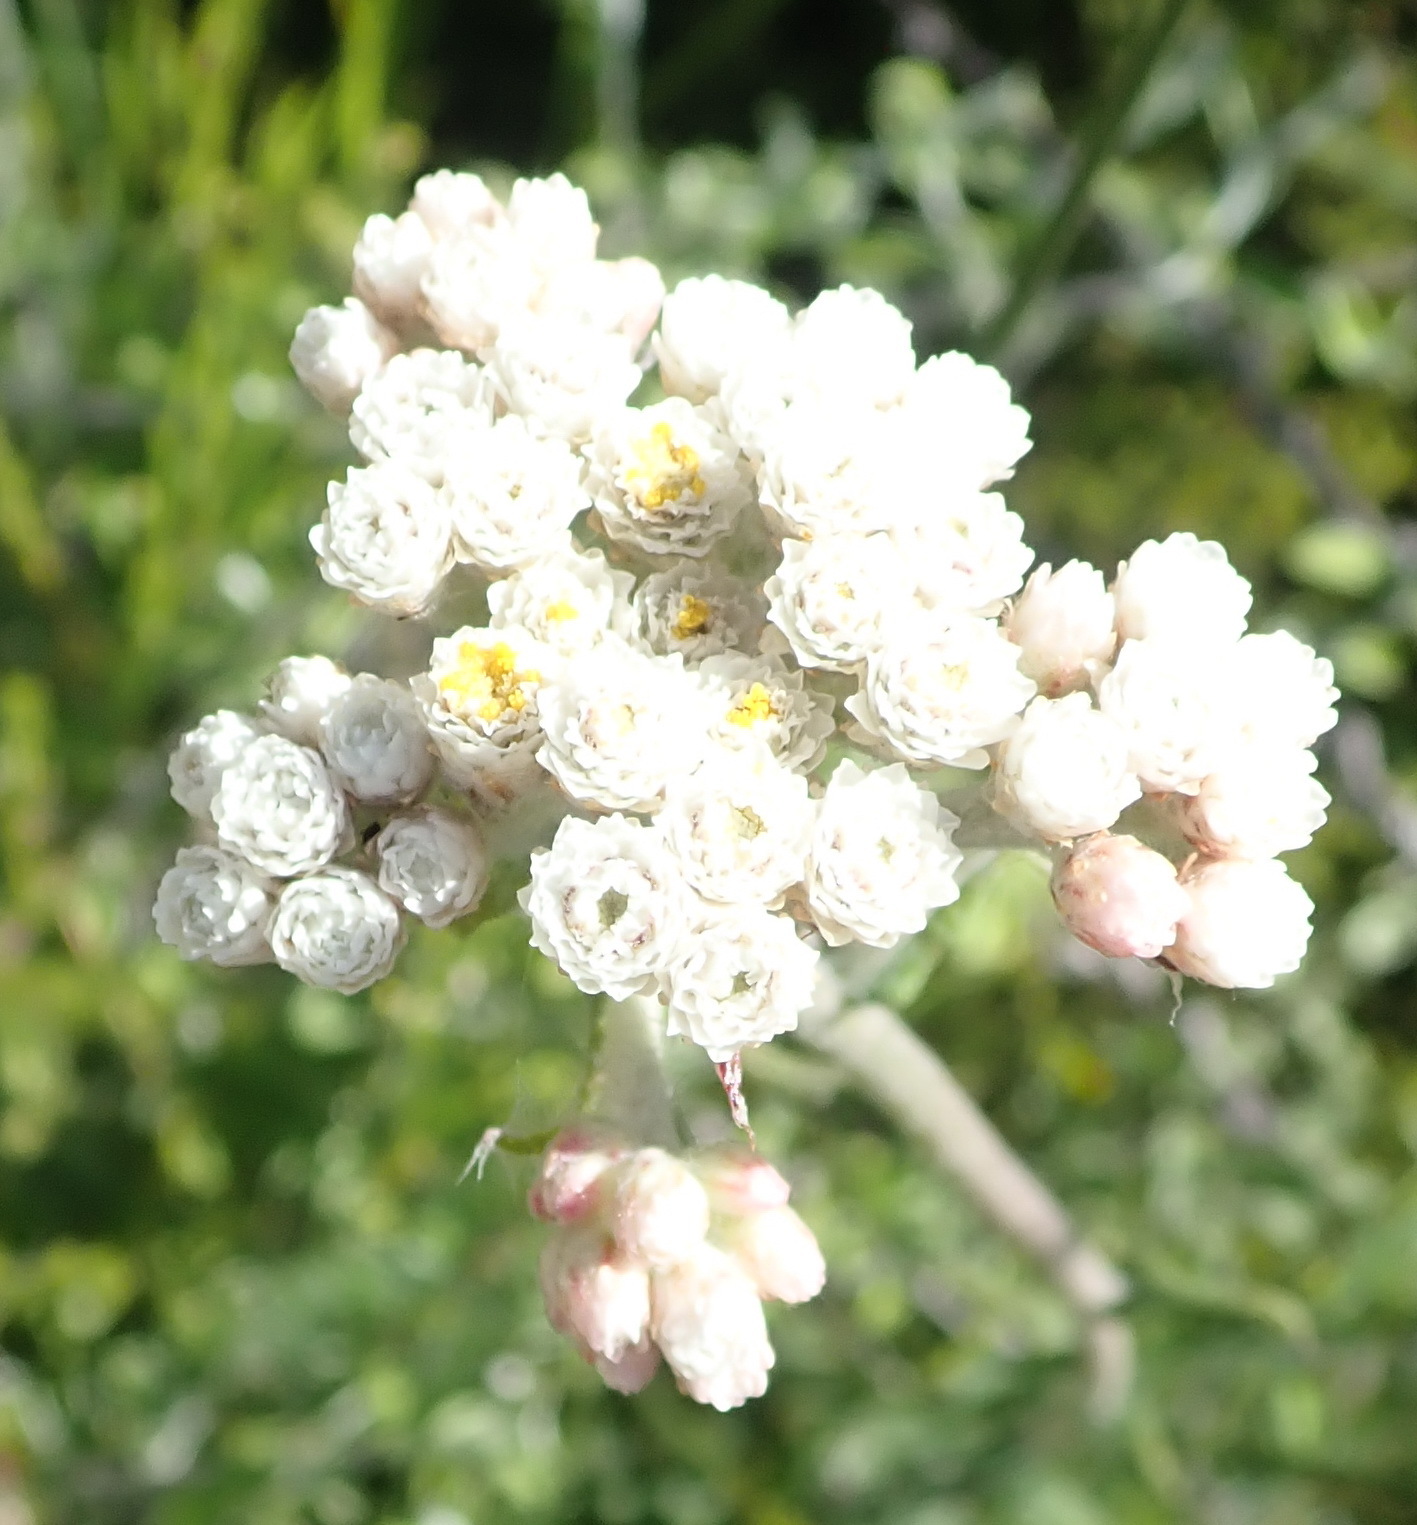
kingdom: Plantae
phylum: Tracheophyta
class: Magnoliopsida
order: Asterales
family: Asteraceae
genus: Helichrysum
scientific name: Helichrysum felinum
